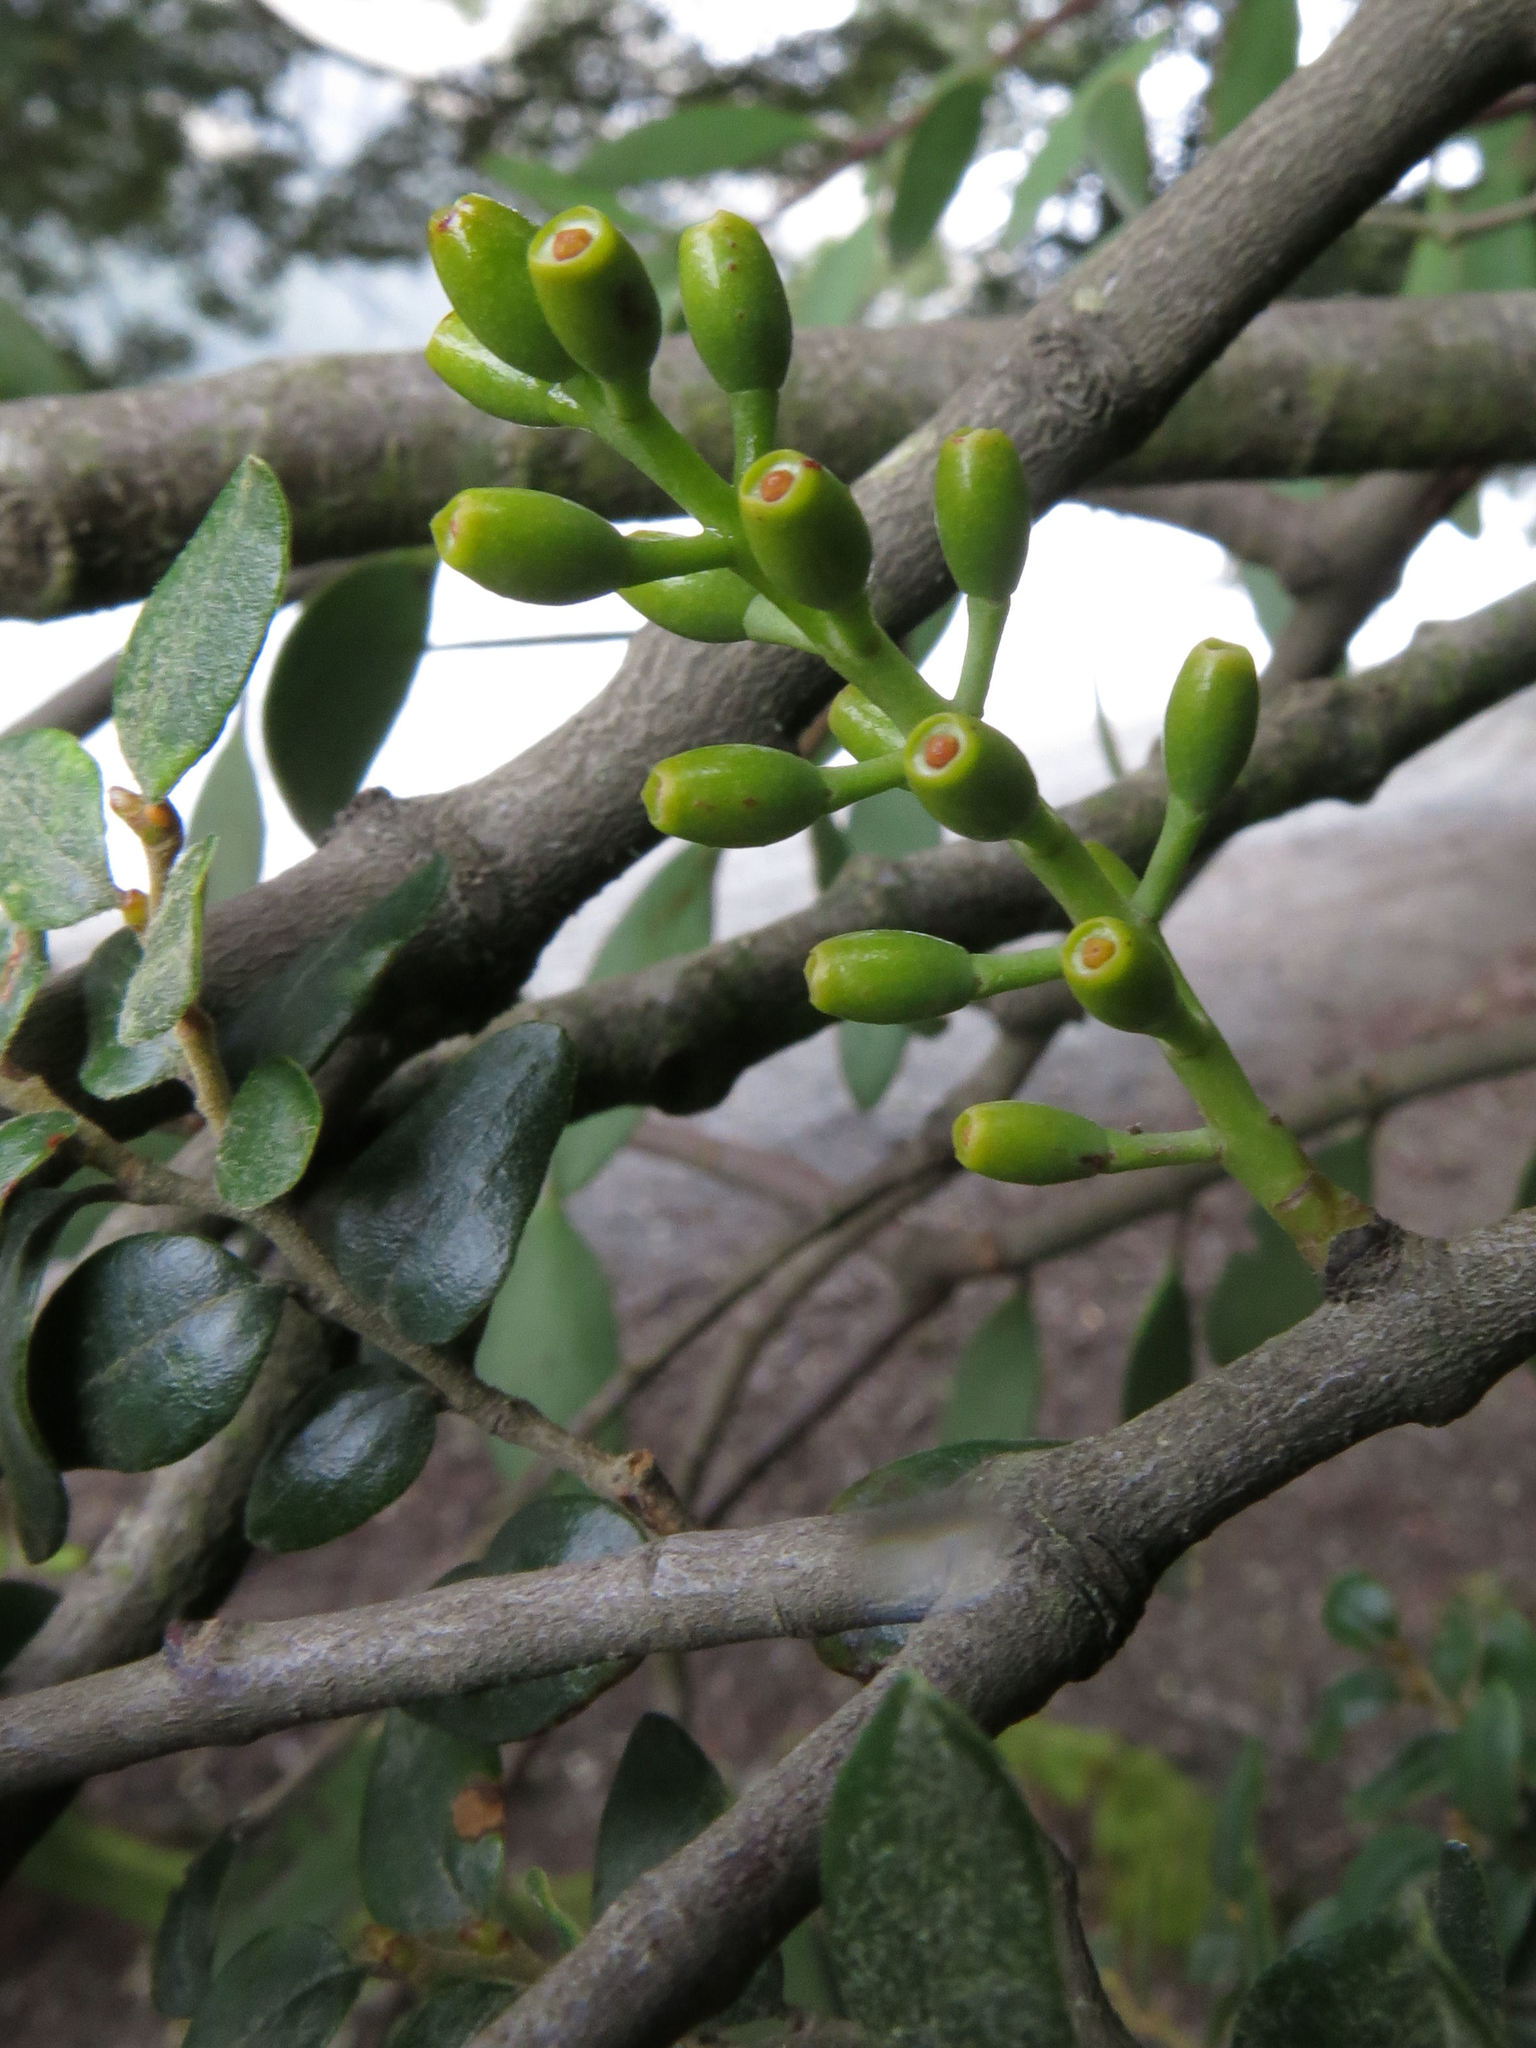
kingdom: Plantae
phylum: Tracheophyta
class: Magnoliopsida
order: Santalales
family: Loranthaceae
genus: Alepis
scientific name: Alepis flavida
